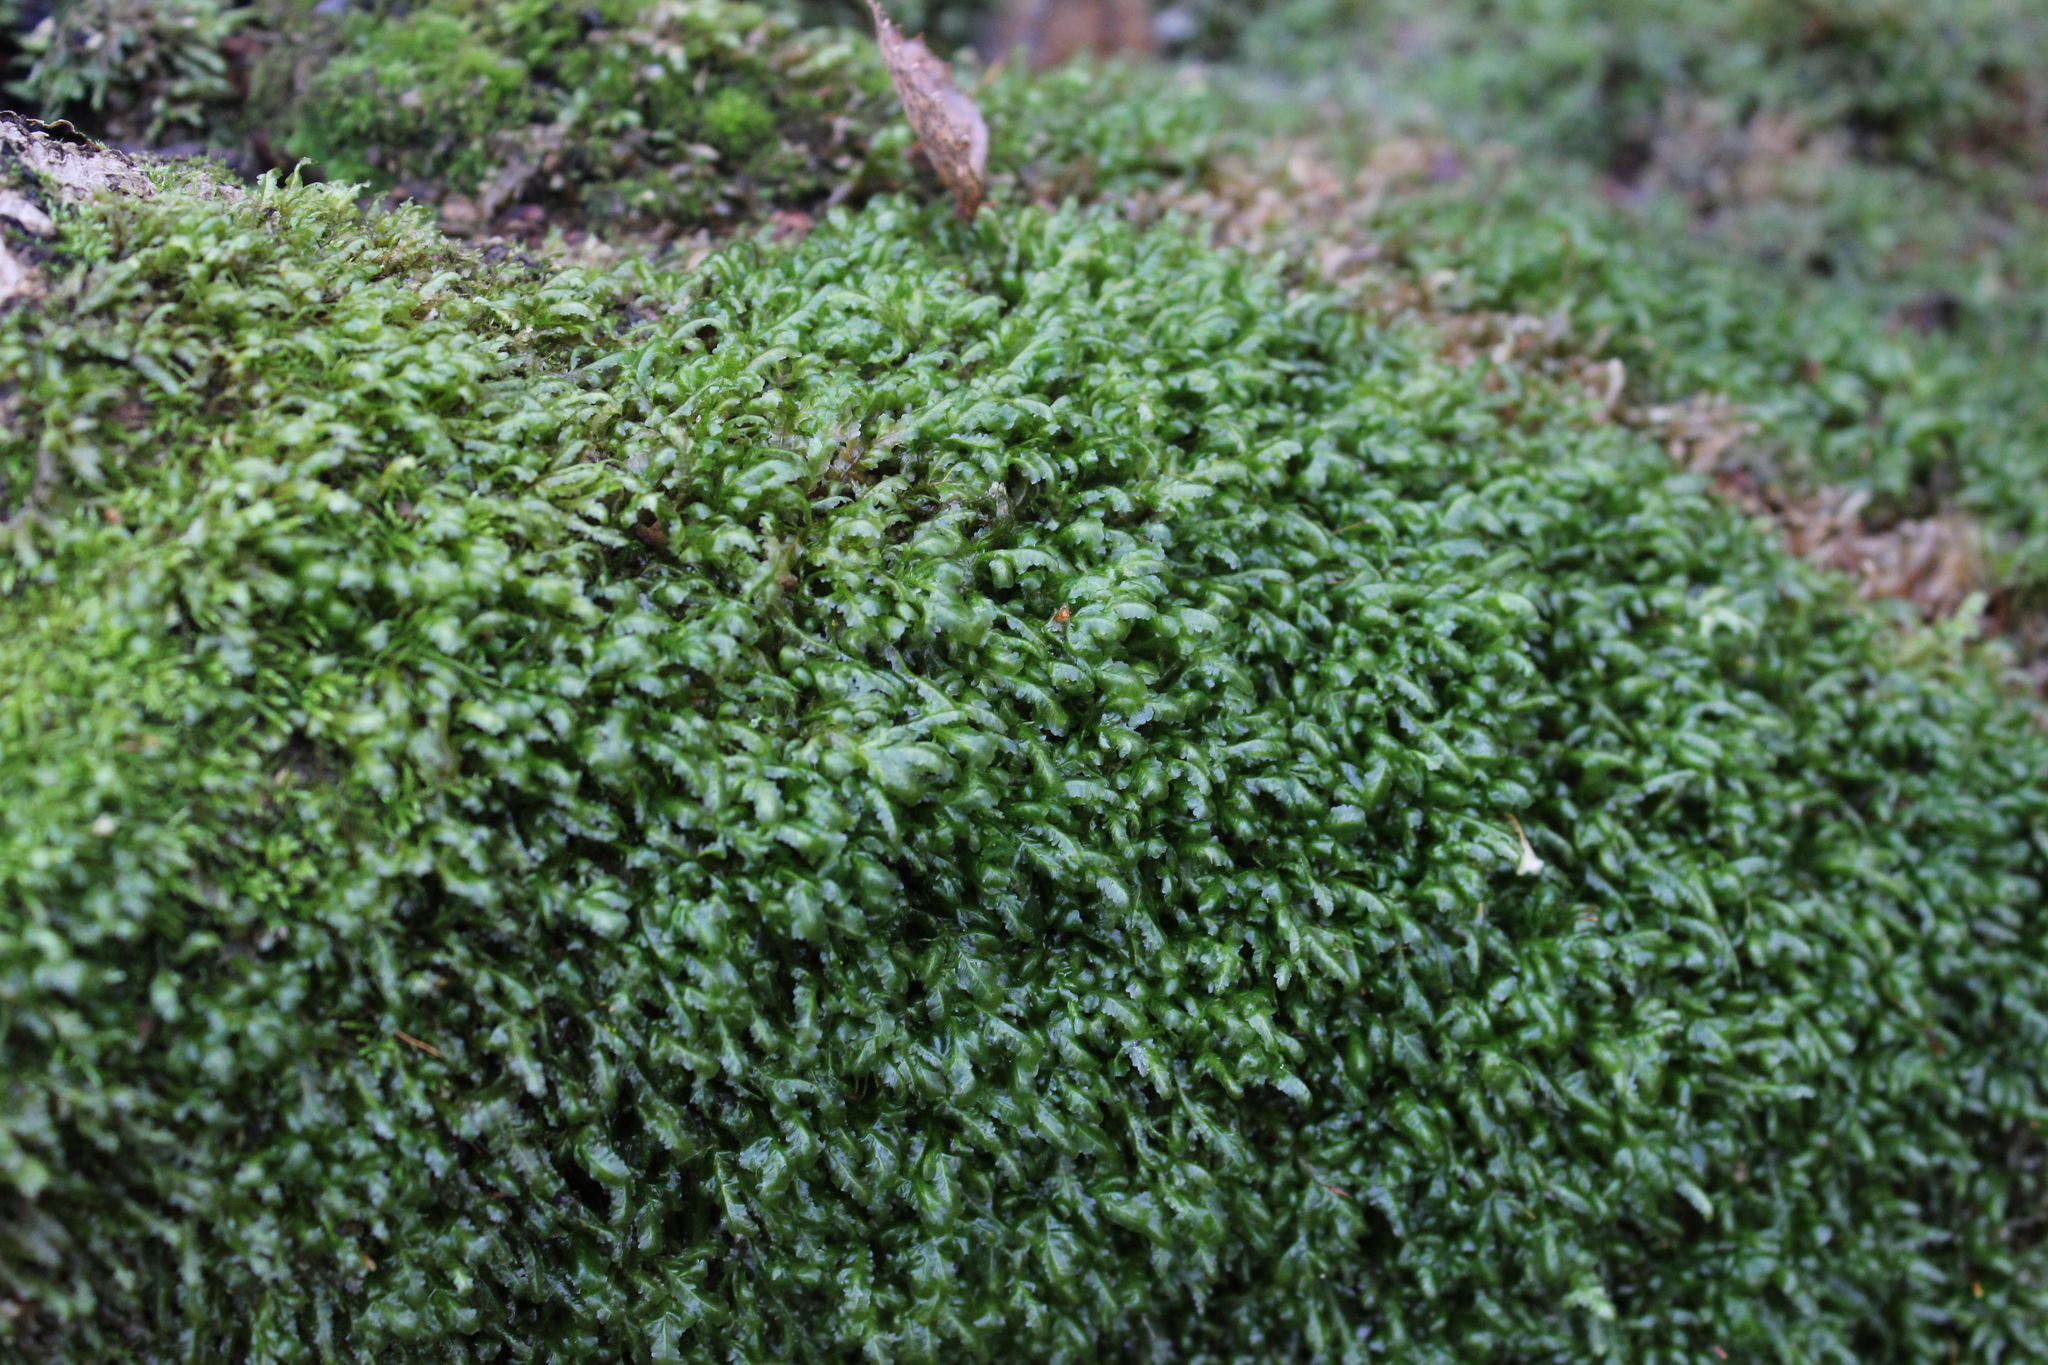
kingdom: Plantae
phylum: Bryophyta
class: Bryopsida
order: Hypnales
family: Neckeraceae
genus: Homalia
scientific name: Homalia trichomanoides
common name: Lime homalia moss
